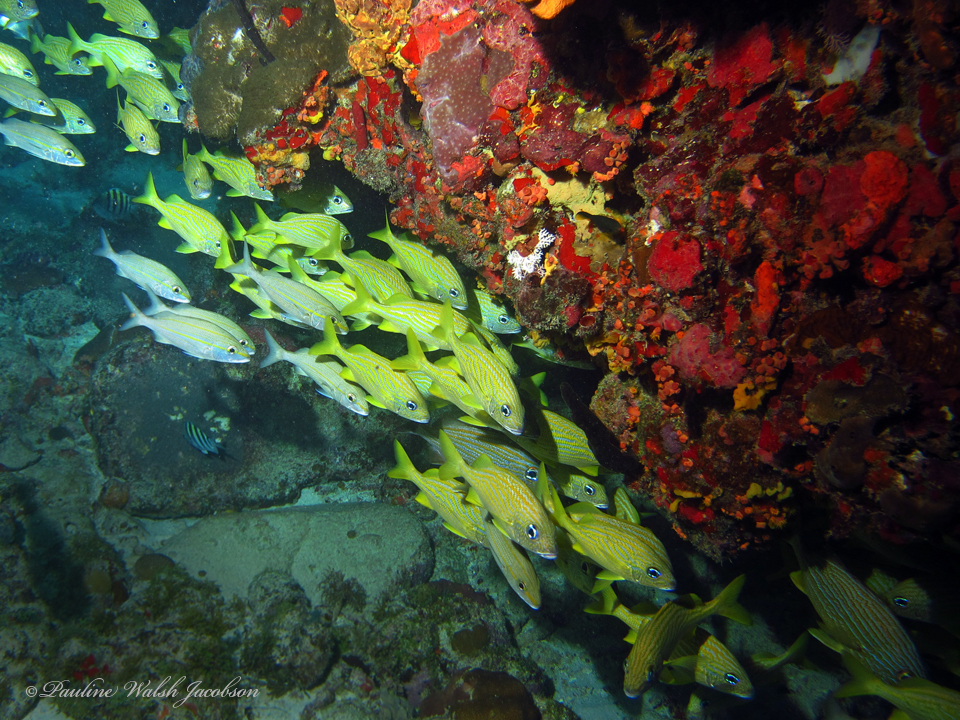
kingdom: Animalia
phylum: Chordata
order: Perciformes
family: Haemulidae
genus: Haemulon
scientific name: Haemulon aurolineatum
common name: Tomtate
